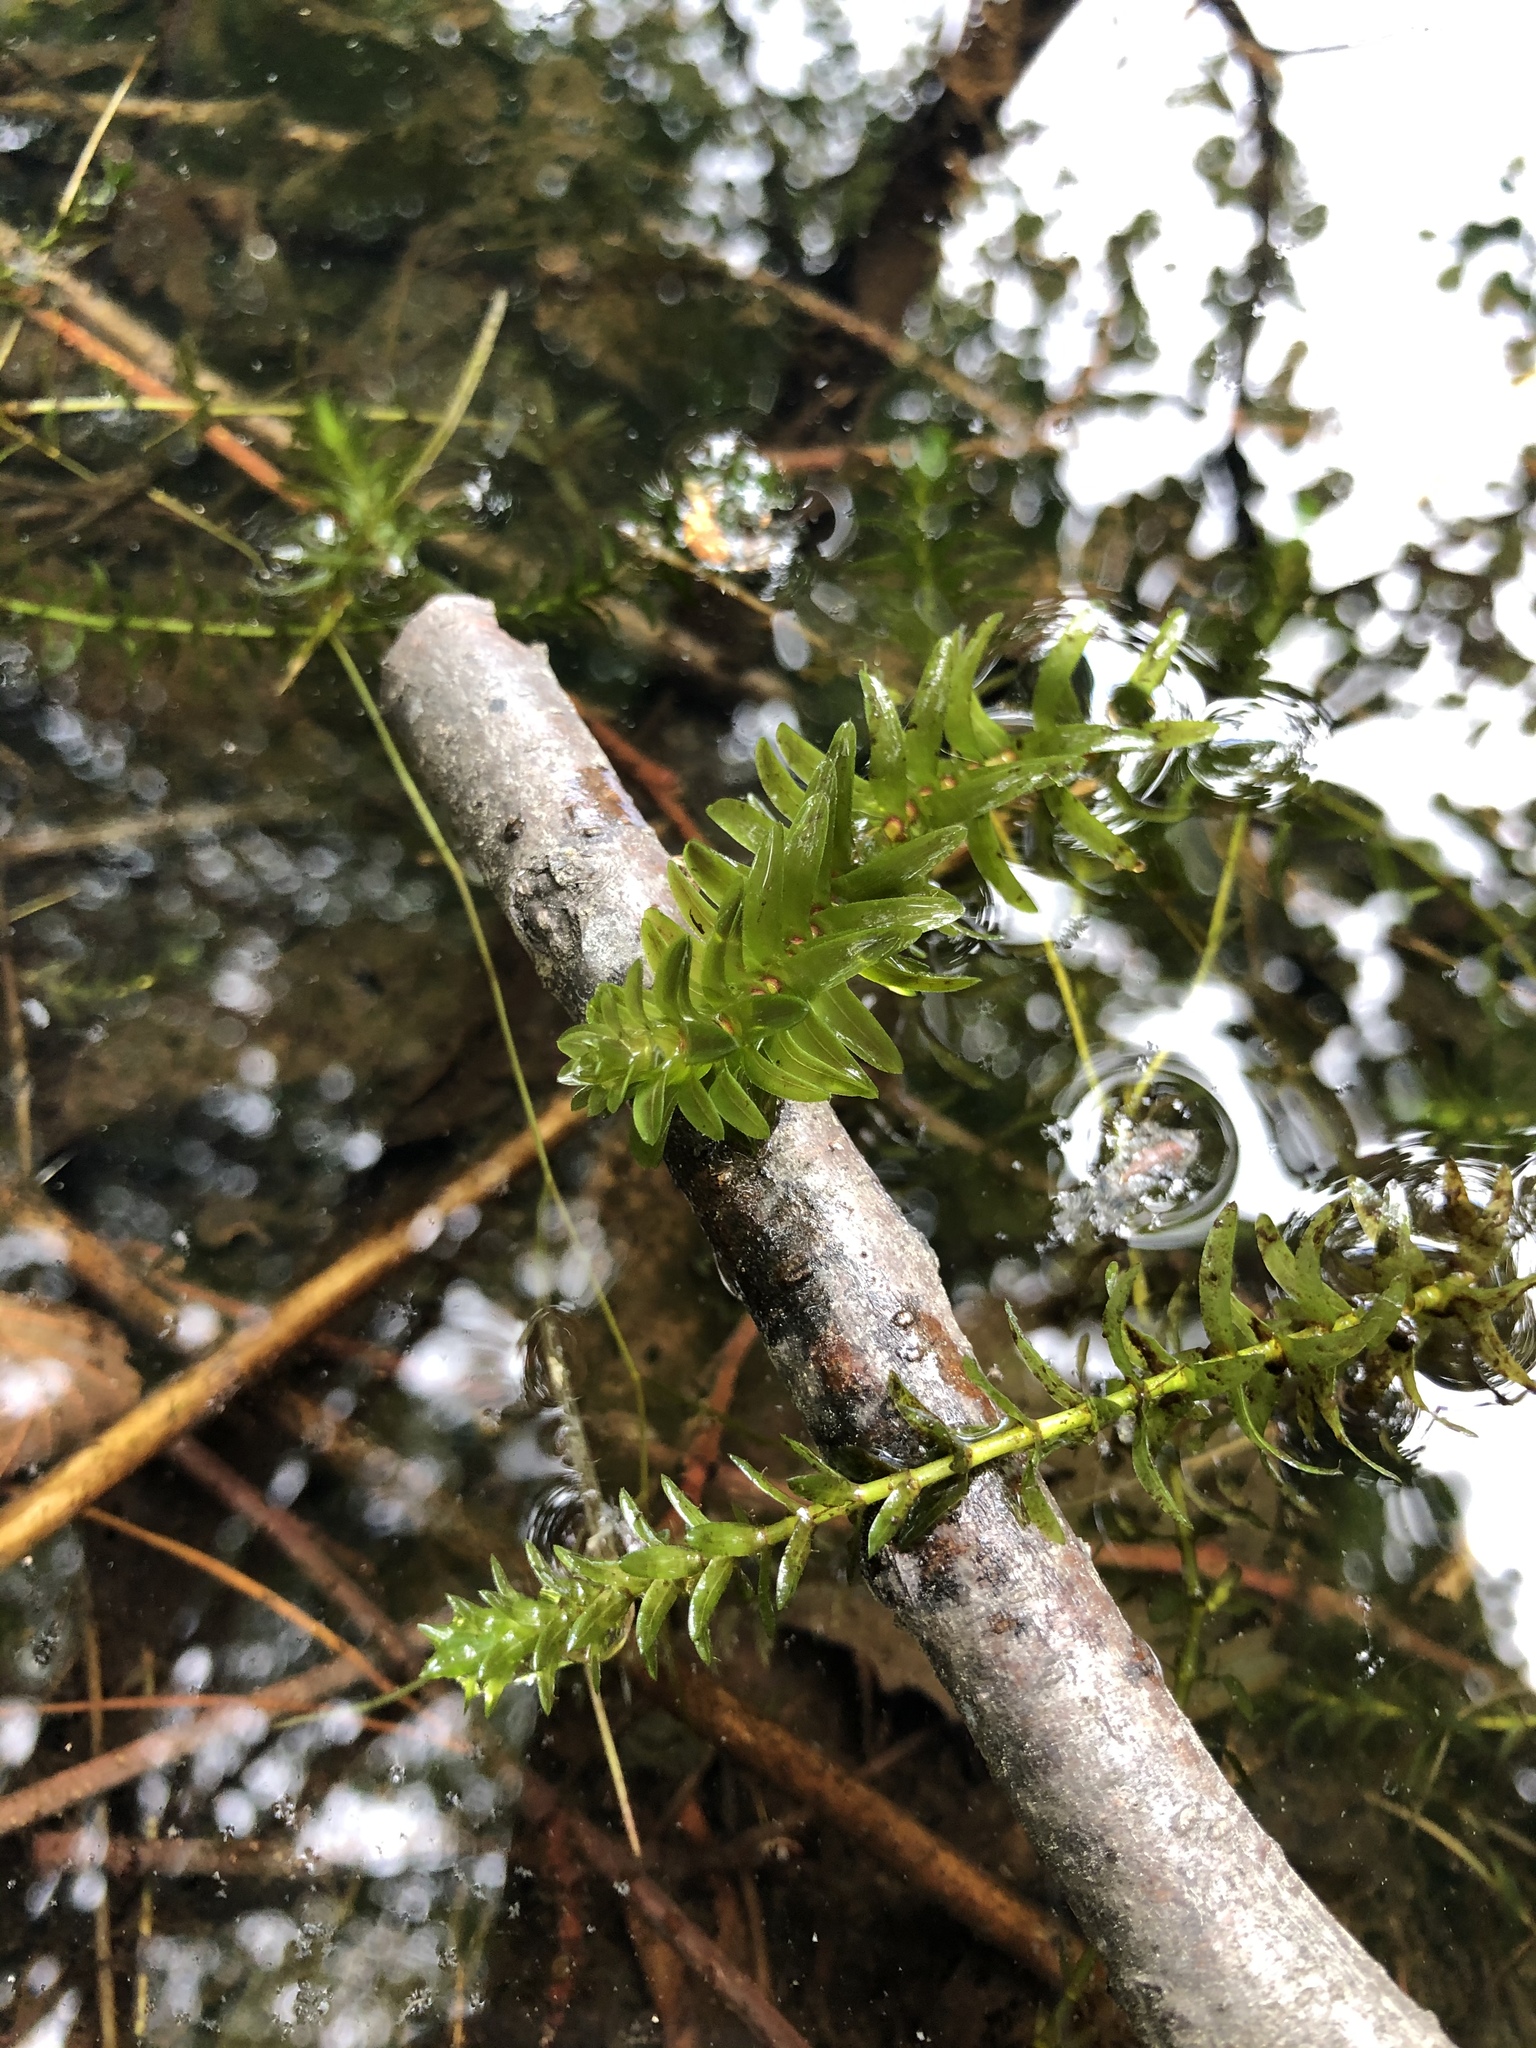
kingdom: Plantae
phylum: Tracheophyta
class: Liliopsida
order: Alismatales
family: Hydrocharitaceae
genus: Elodea
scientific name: Elodea canadensis
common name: Canadian waterweed
